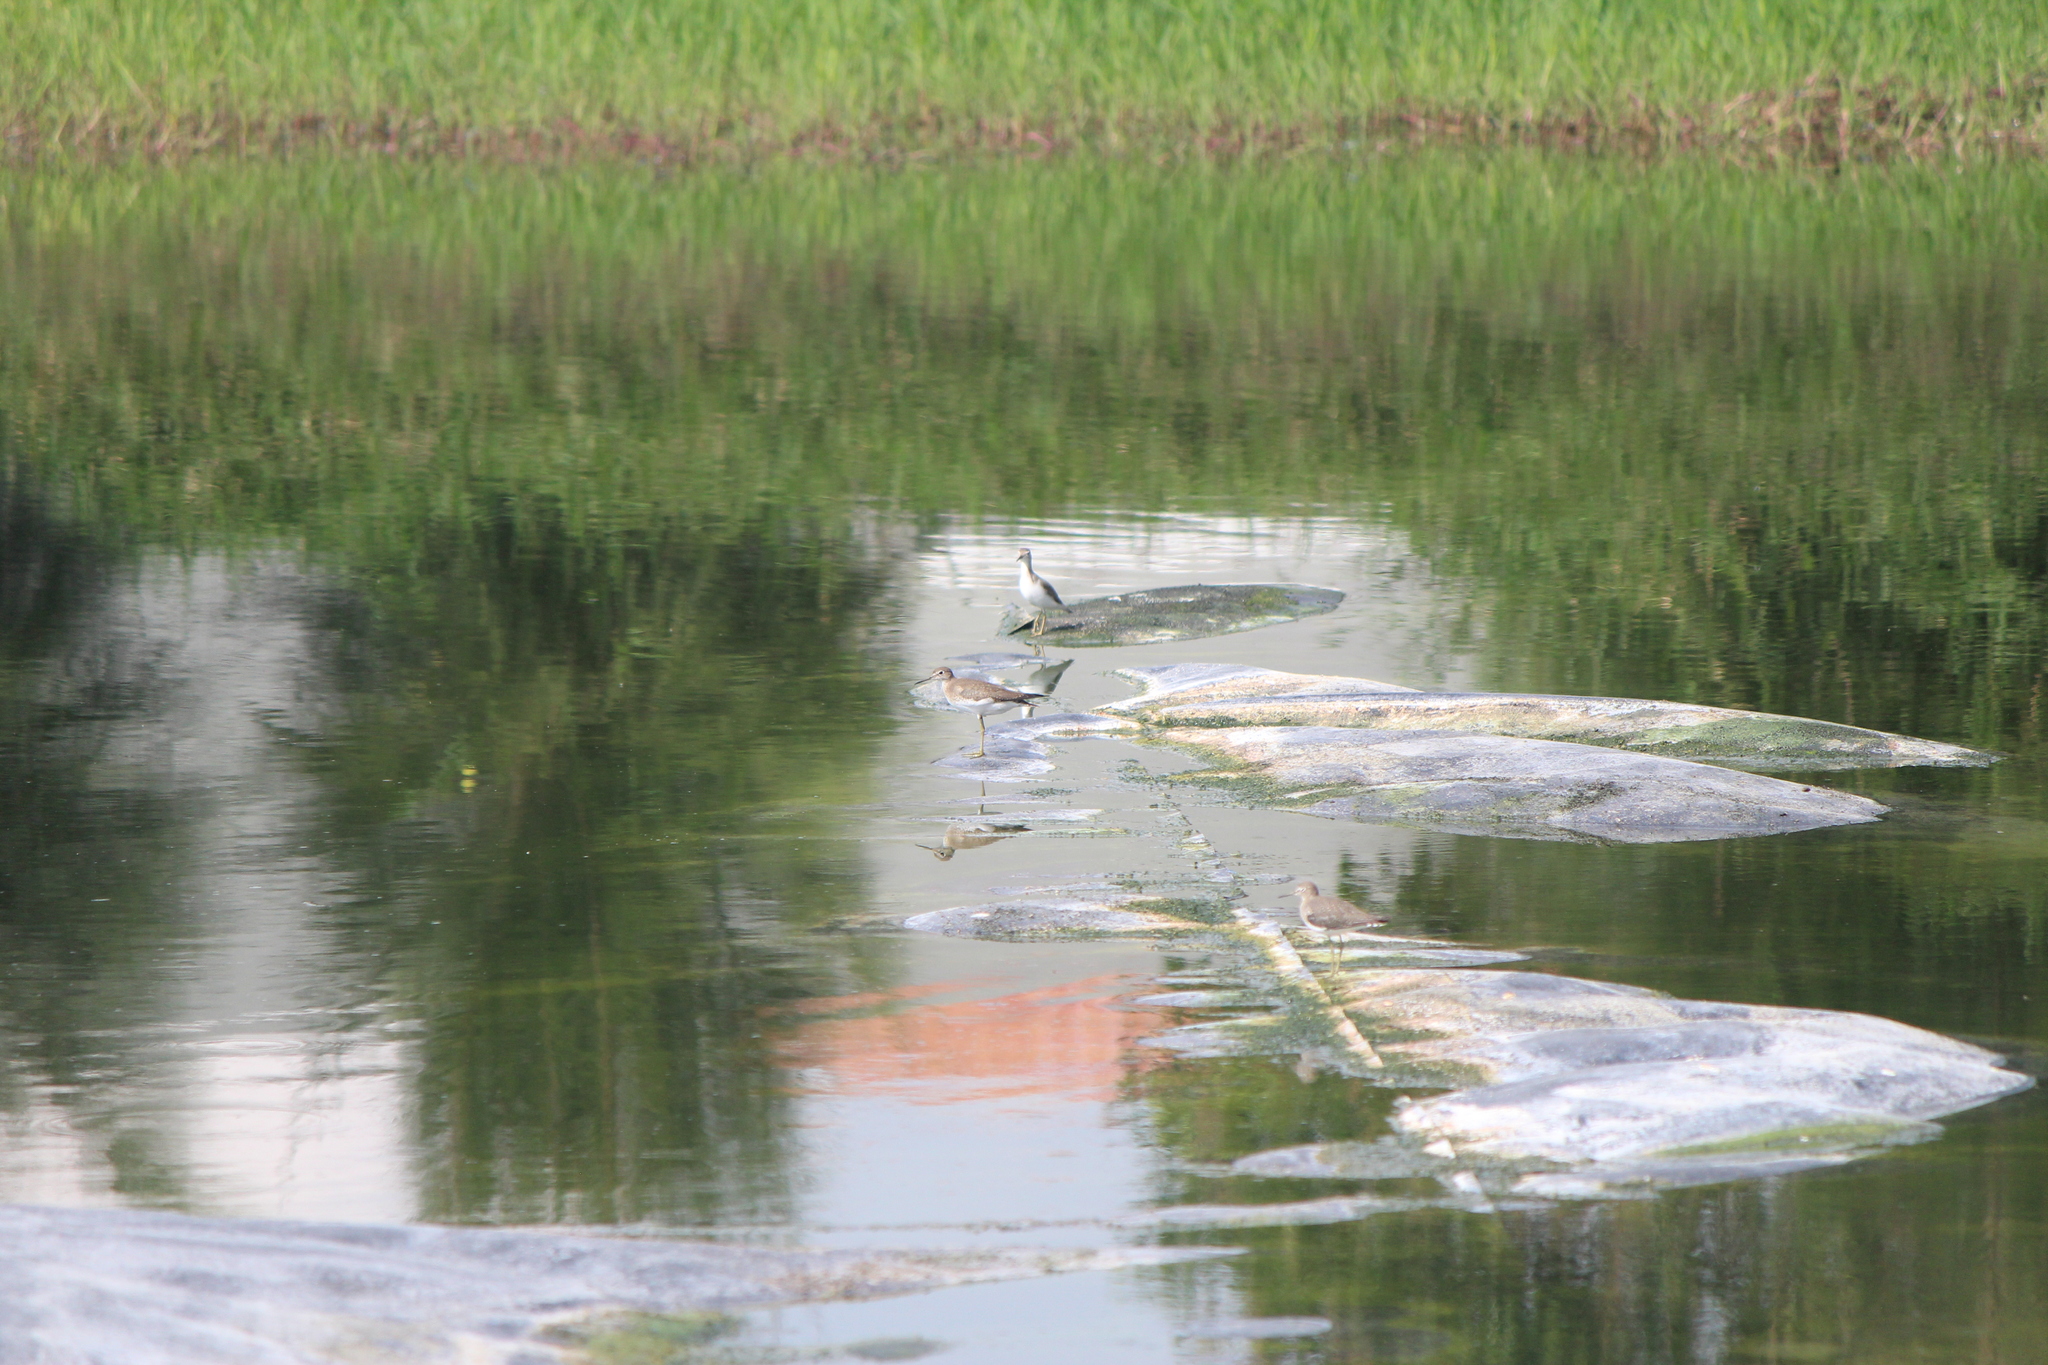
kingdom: Animalia
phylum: Chordata
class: Aves
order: Charadriiformes
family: Scolopacidae
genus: Actitis
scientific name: Actitis macularius
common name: Spotted sandpiper
